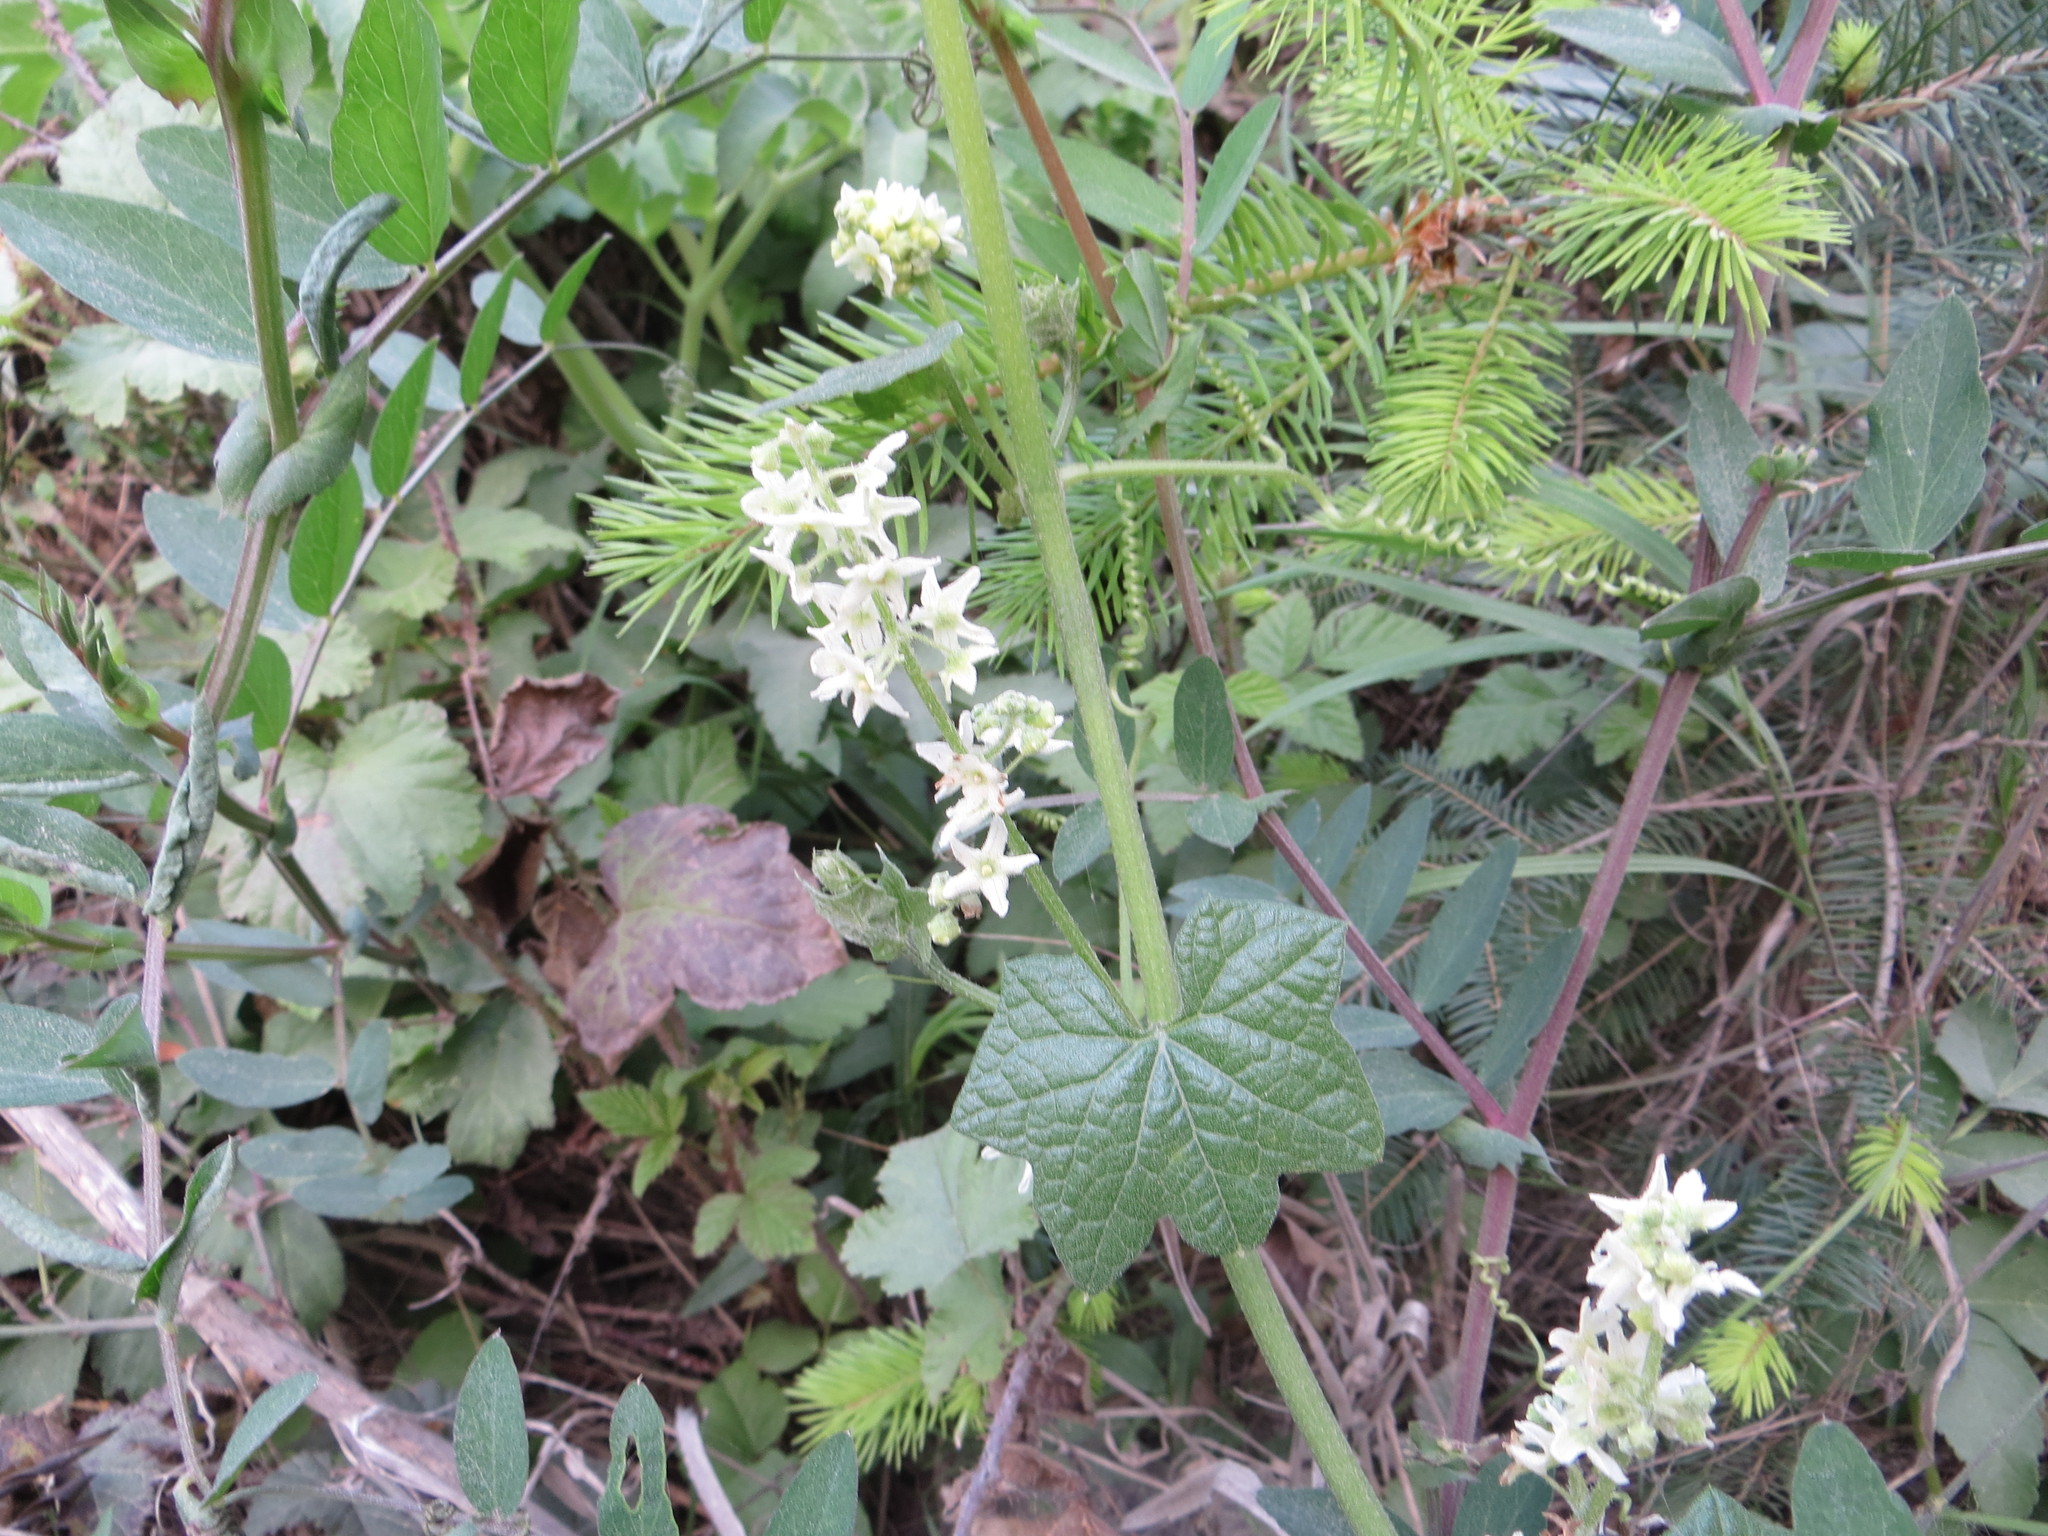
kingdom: Plantae
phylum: Tracheophyta
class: Magnoliopsida
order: Cucurbitales
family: Cucurbitaceae
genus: Marah
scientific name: Marah fabacea
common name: California manroot
